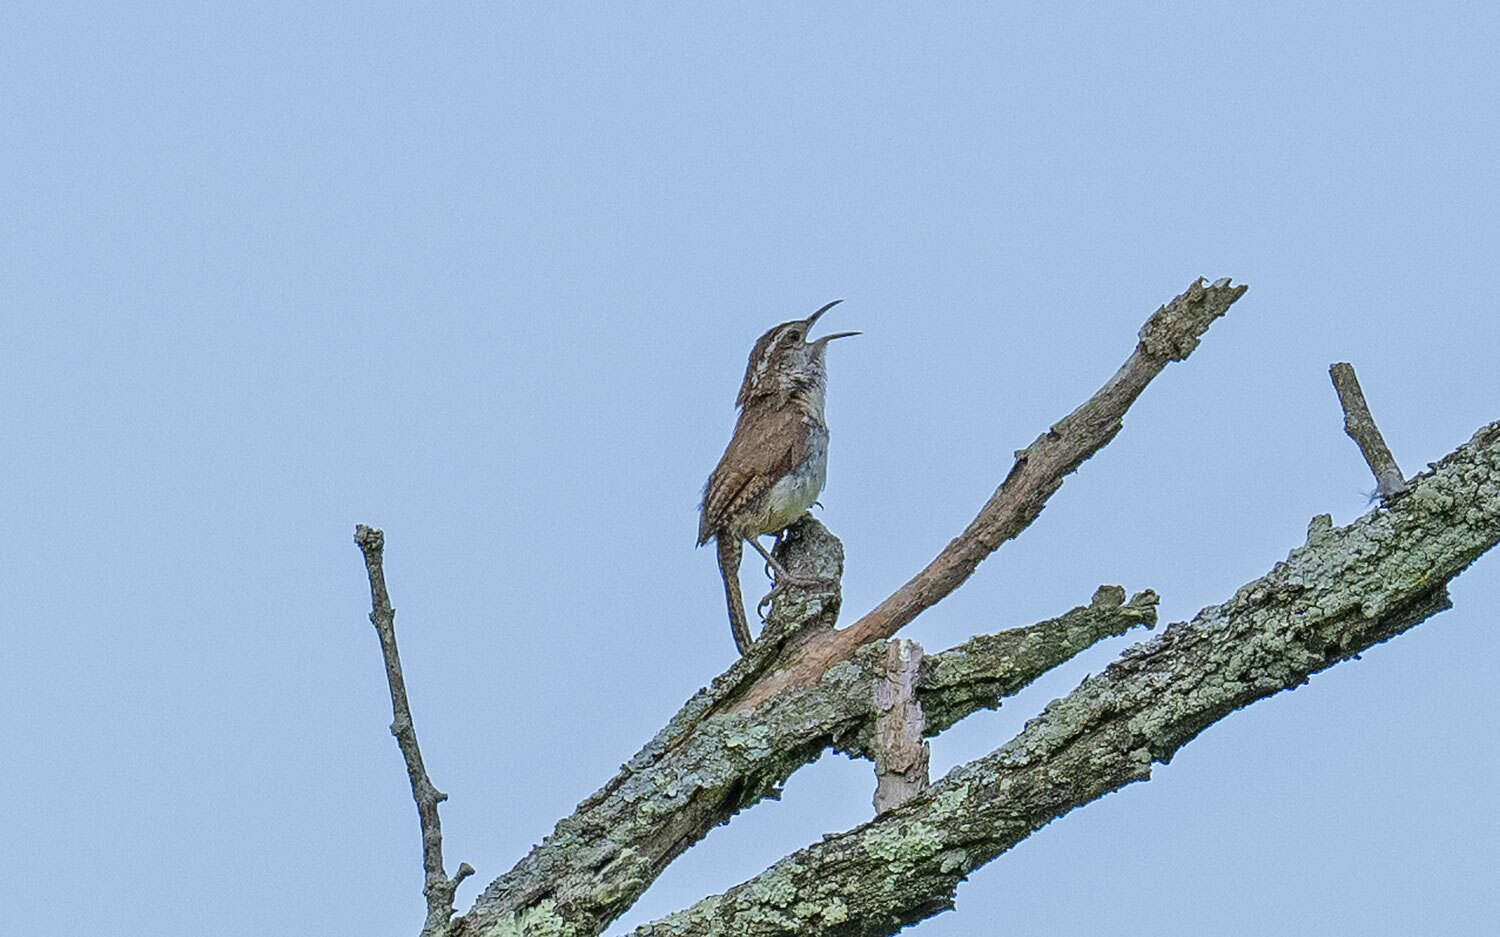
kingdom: Animalia
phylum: Chordata
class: Aves
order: Passeriformes
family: Troglodytidae
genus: Thryothorus
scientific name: Thryothorus ludovicianus
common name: Carolina wren
